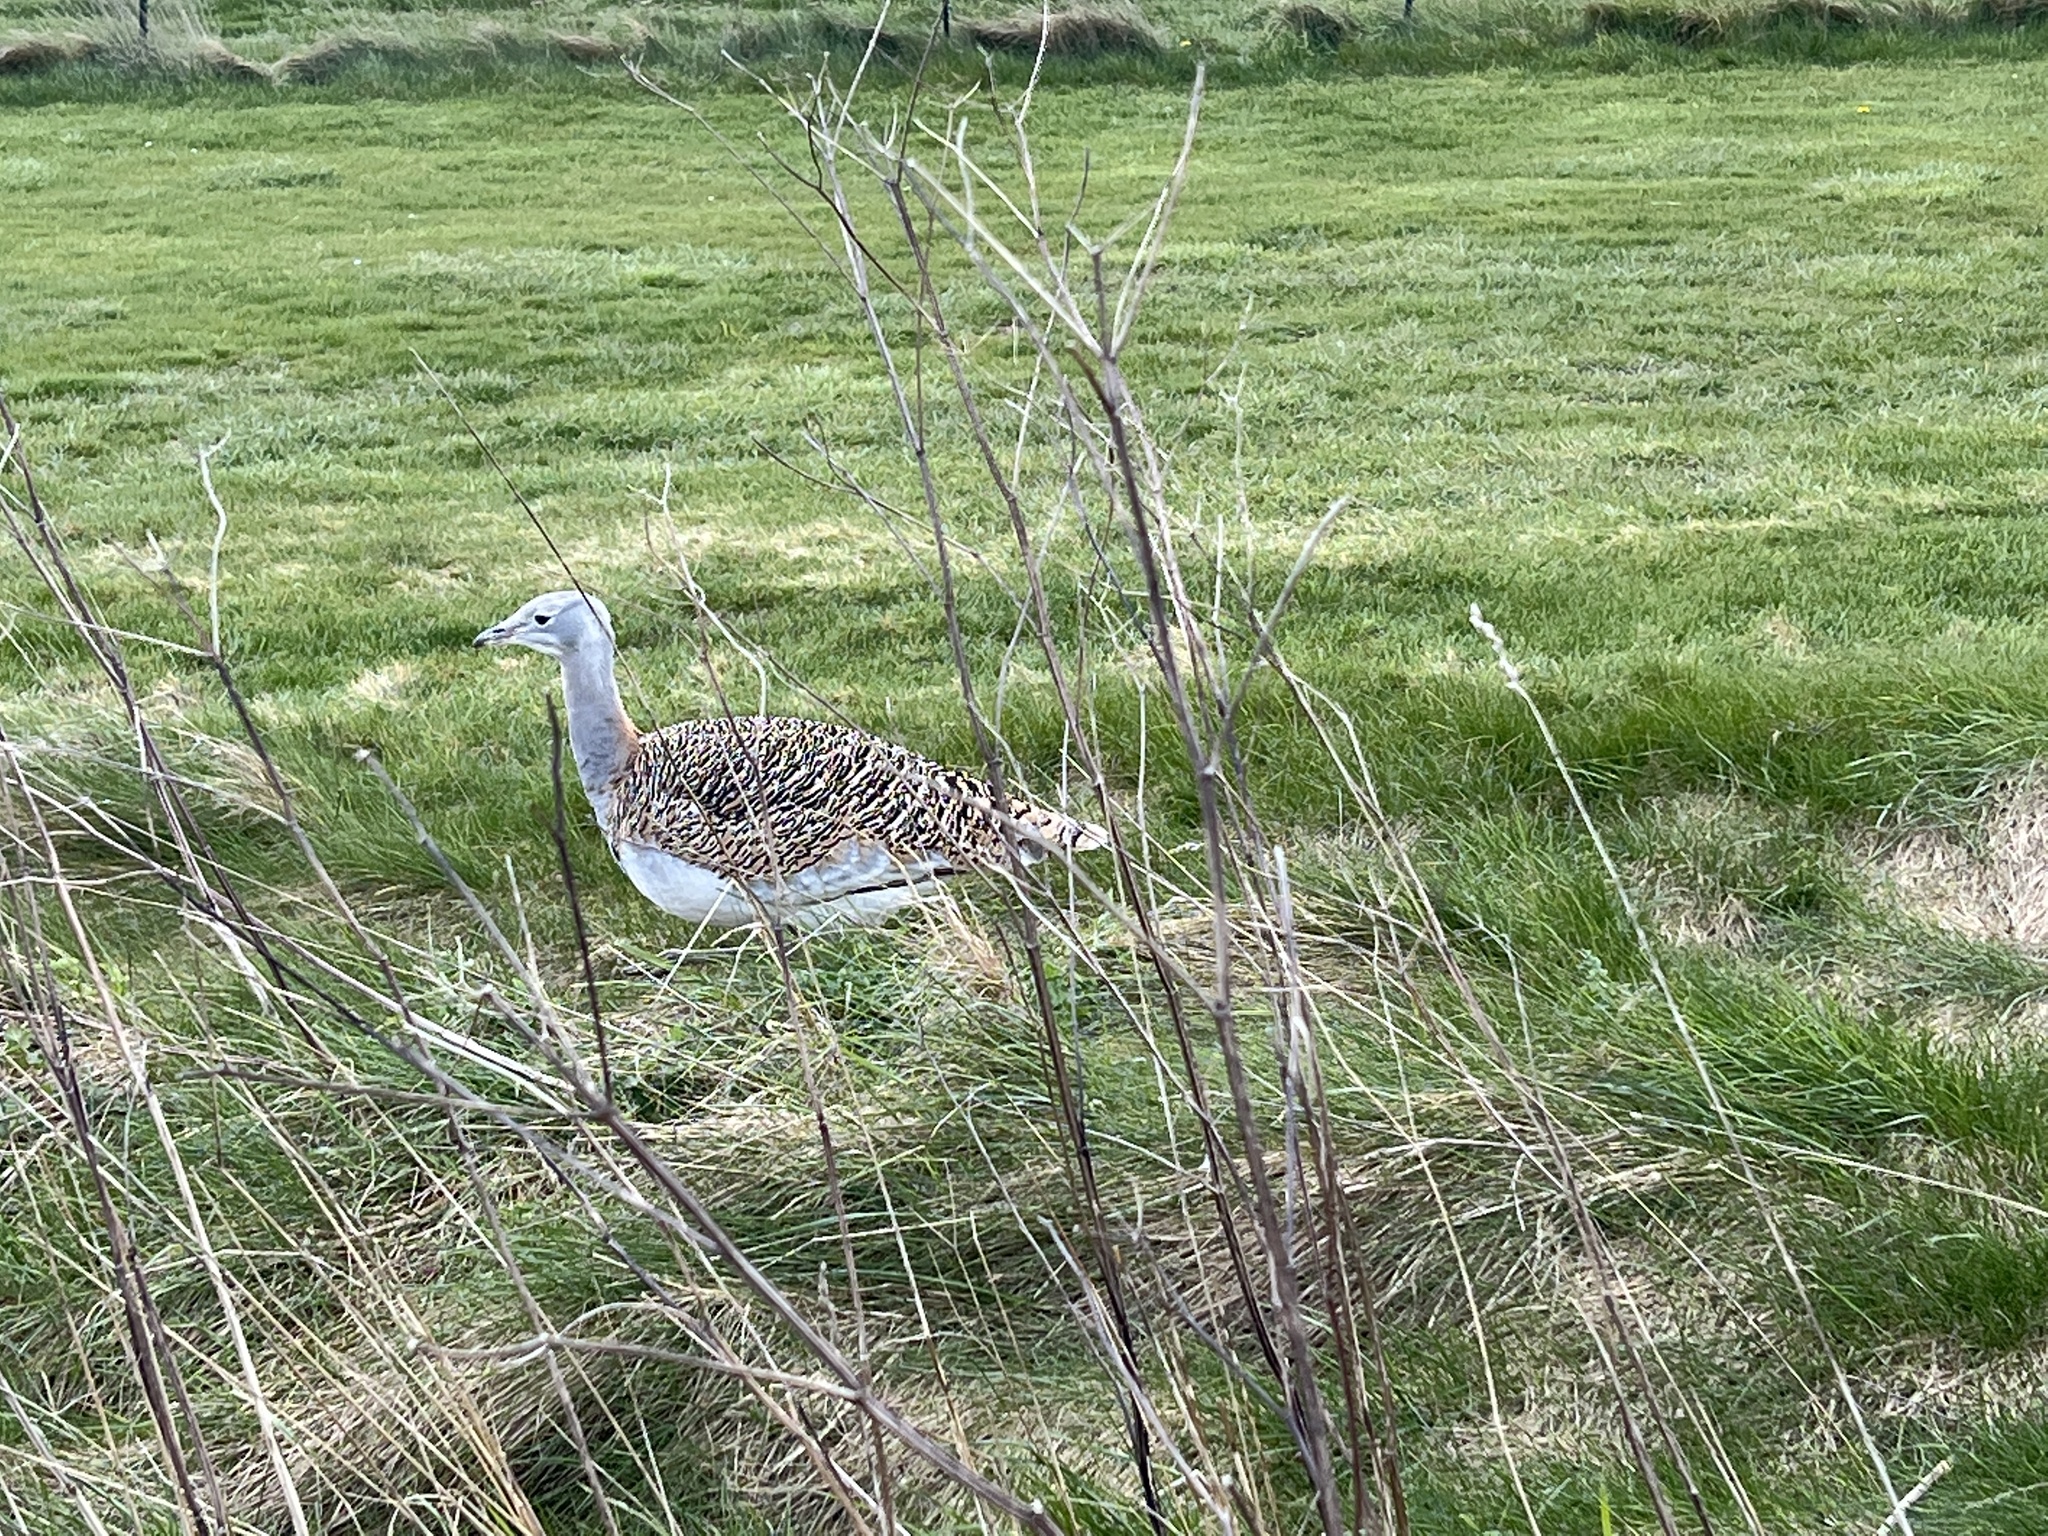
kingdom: Animalia
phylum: Chordata
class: Aves
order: Otidiformes
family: Otididae
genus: Otis
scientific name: Otis tarda
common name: Great bustard
